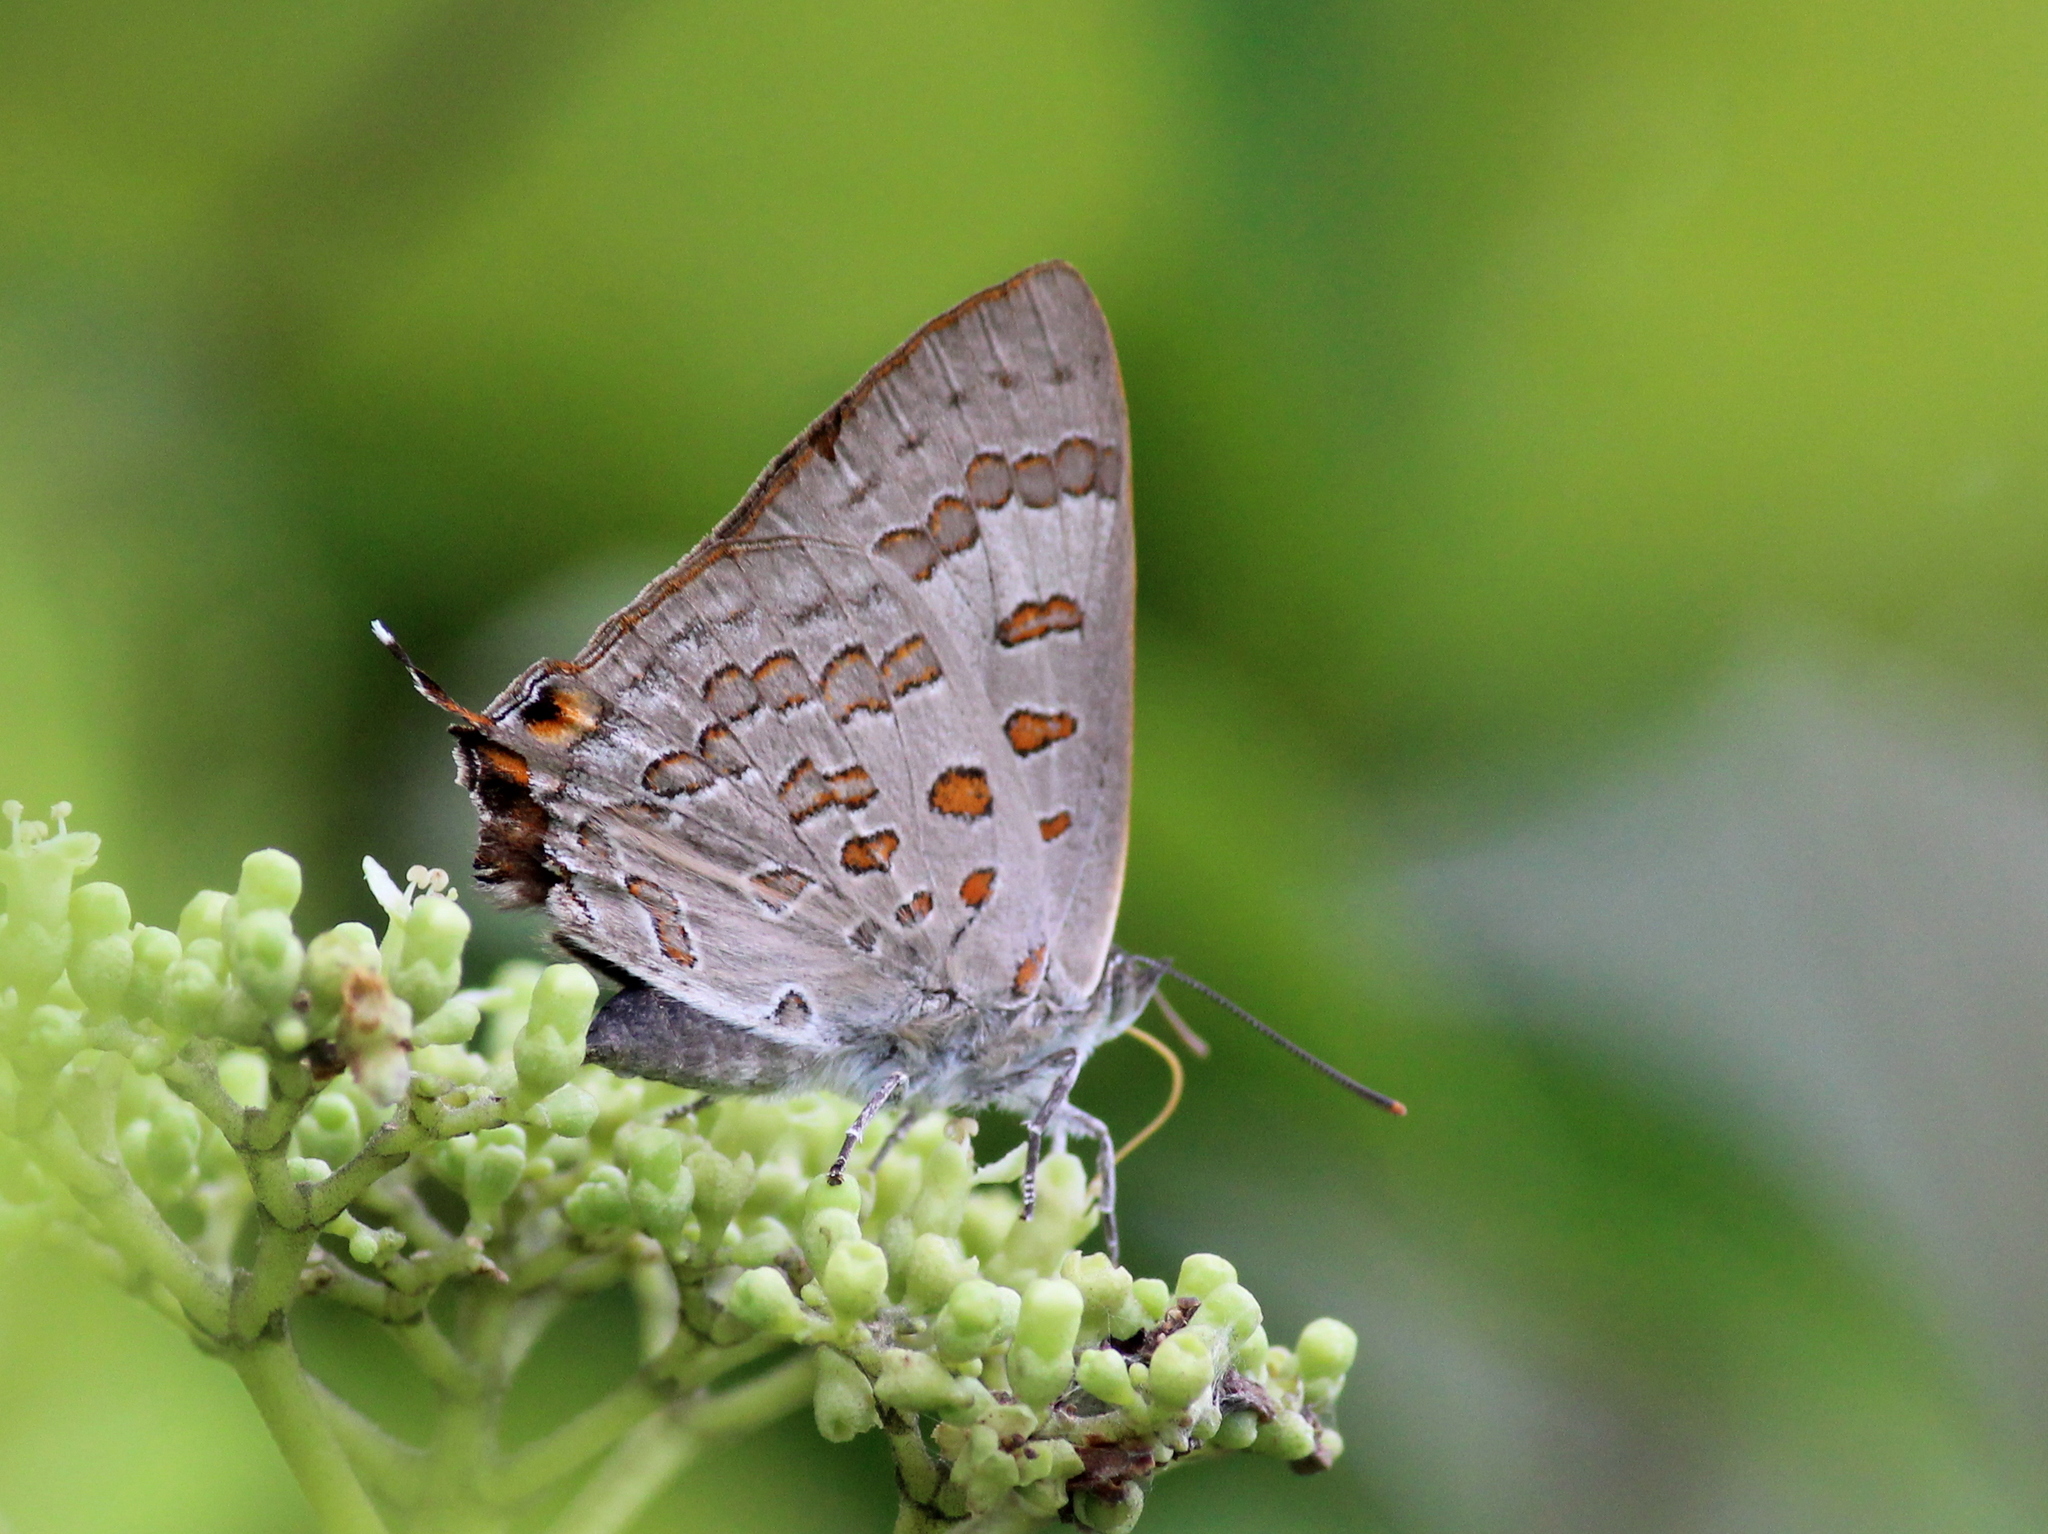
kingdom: Animalia
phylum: Arthropoda
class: Insecta
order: Lepidoptera
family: Lycaenidae
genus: Zesius
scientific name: Zesius chrysomallus
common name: Redspot
